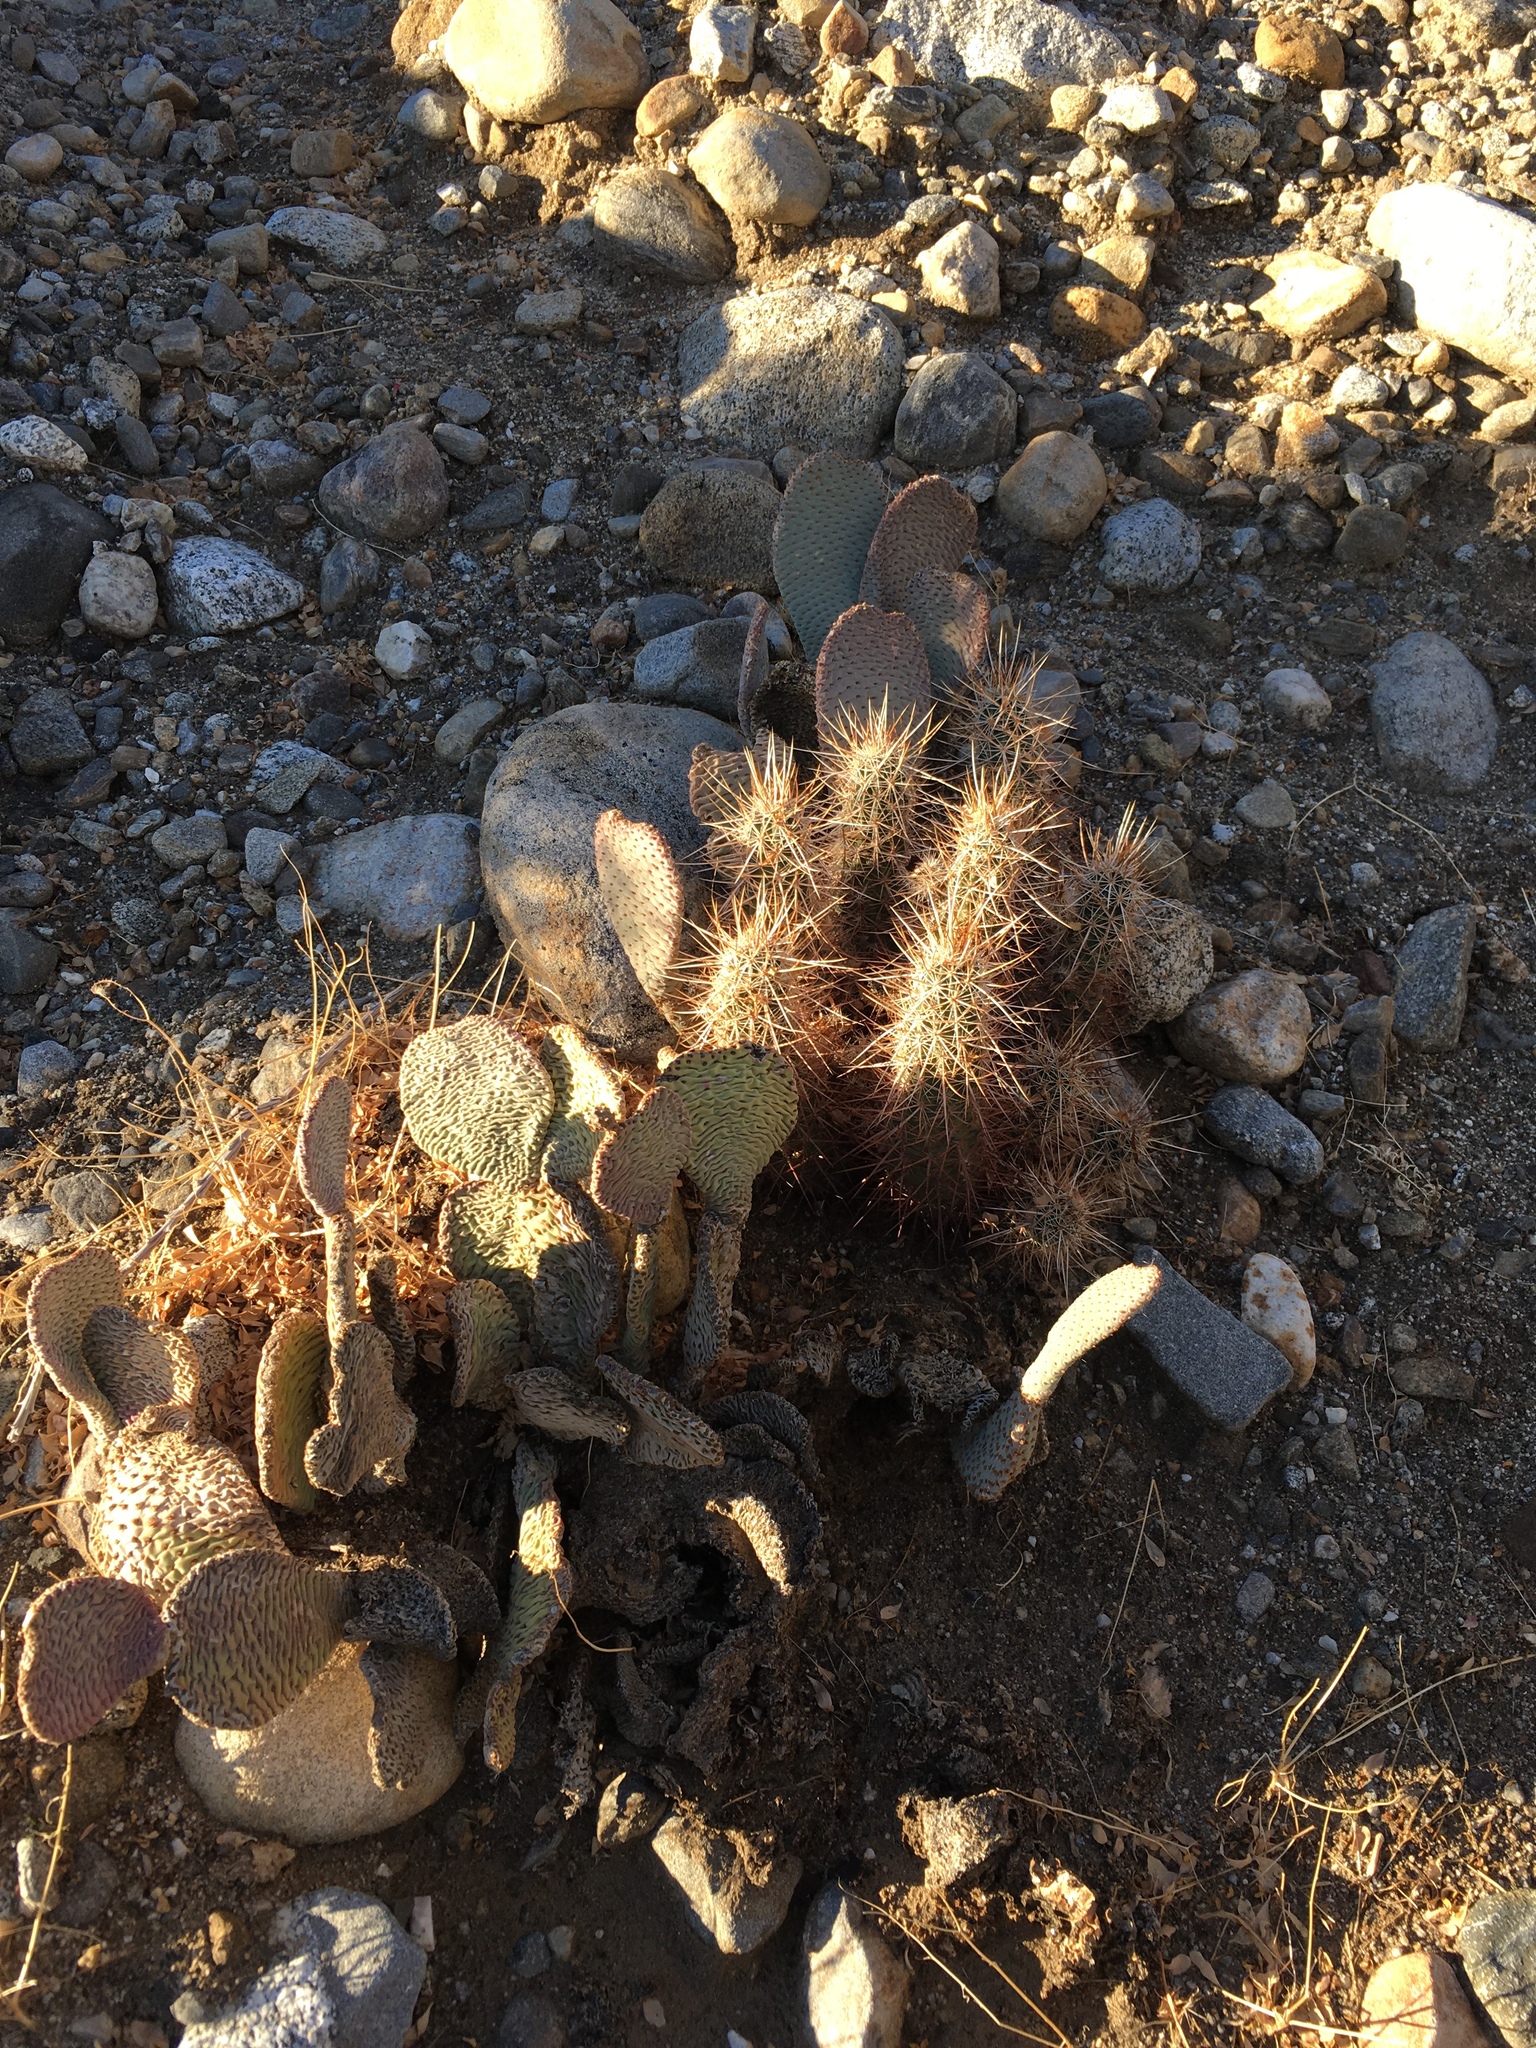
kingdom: Plantae
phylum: Tracheophyta
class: Magnoliopsida
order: Caryophyllales
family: Cactaceae
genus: Opuntia
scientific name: Opuntia basilaris
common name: Beavertail prickly-pear
